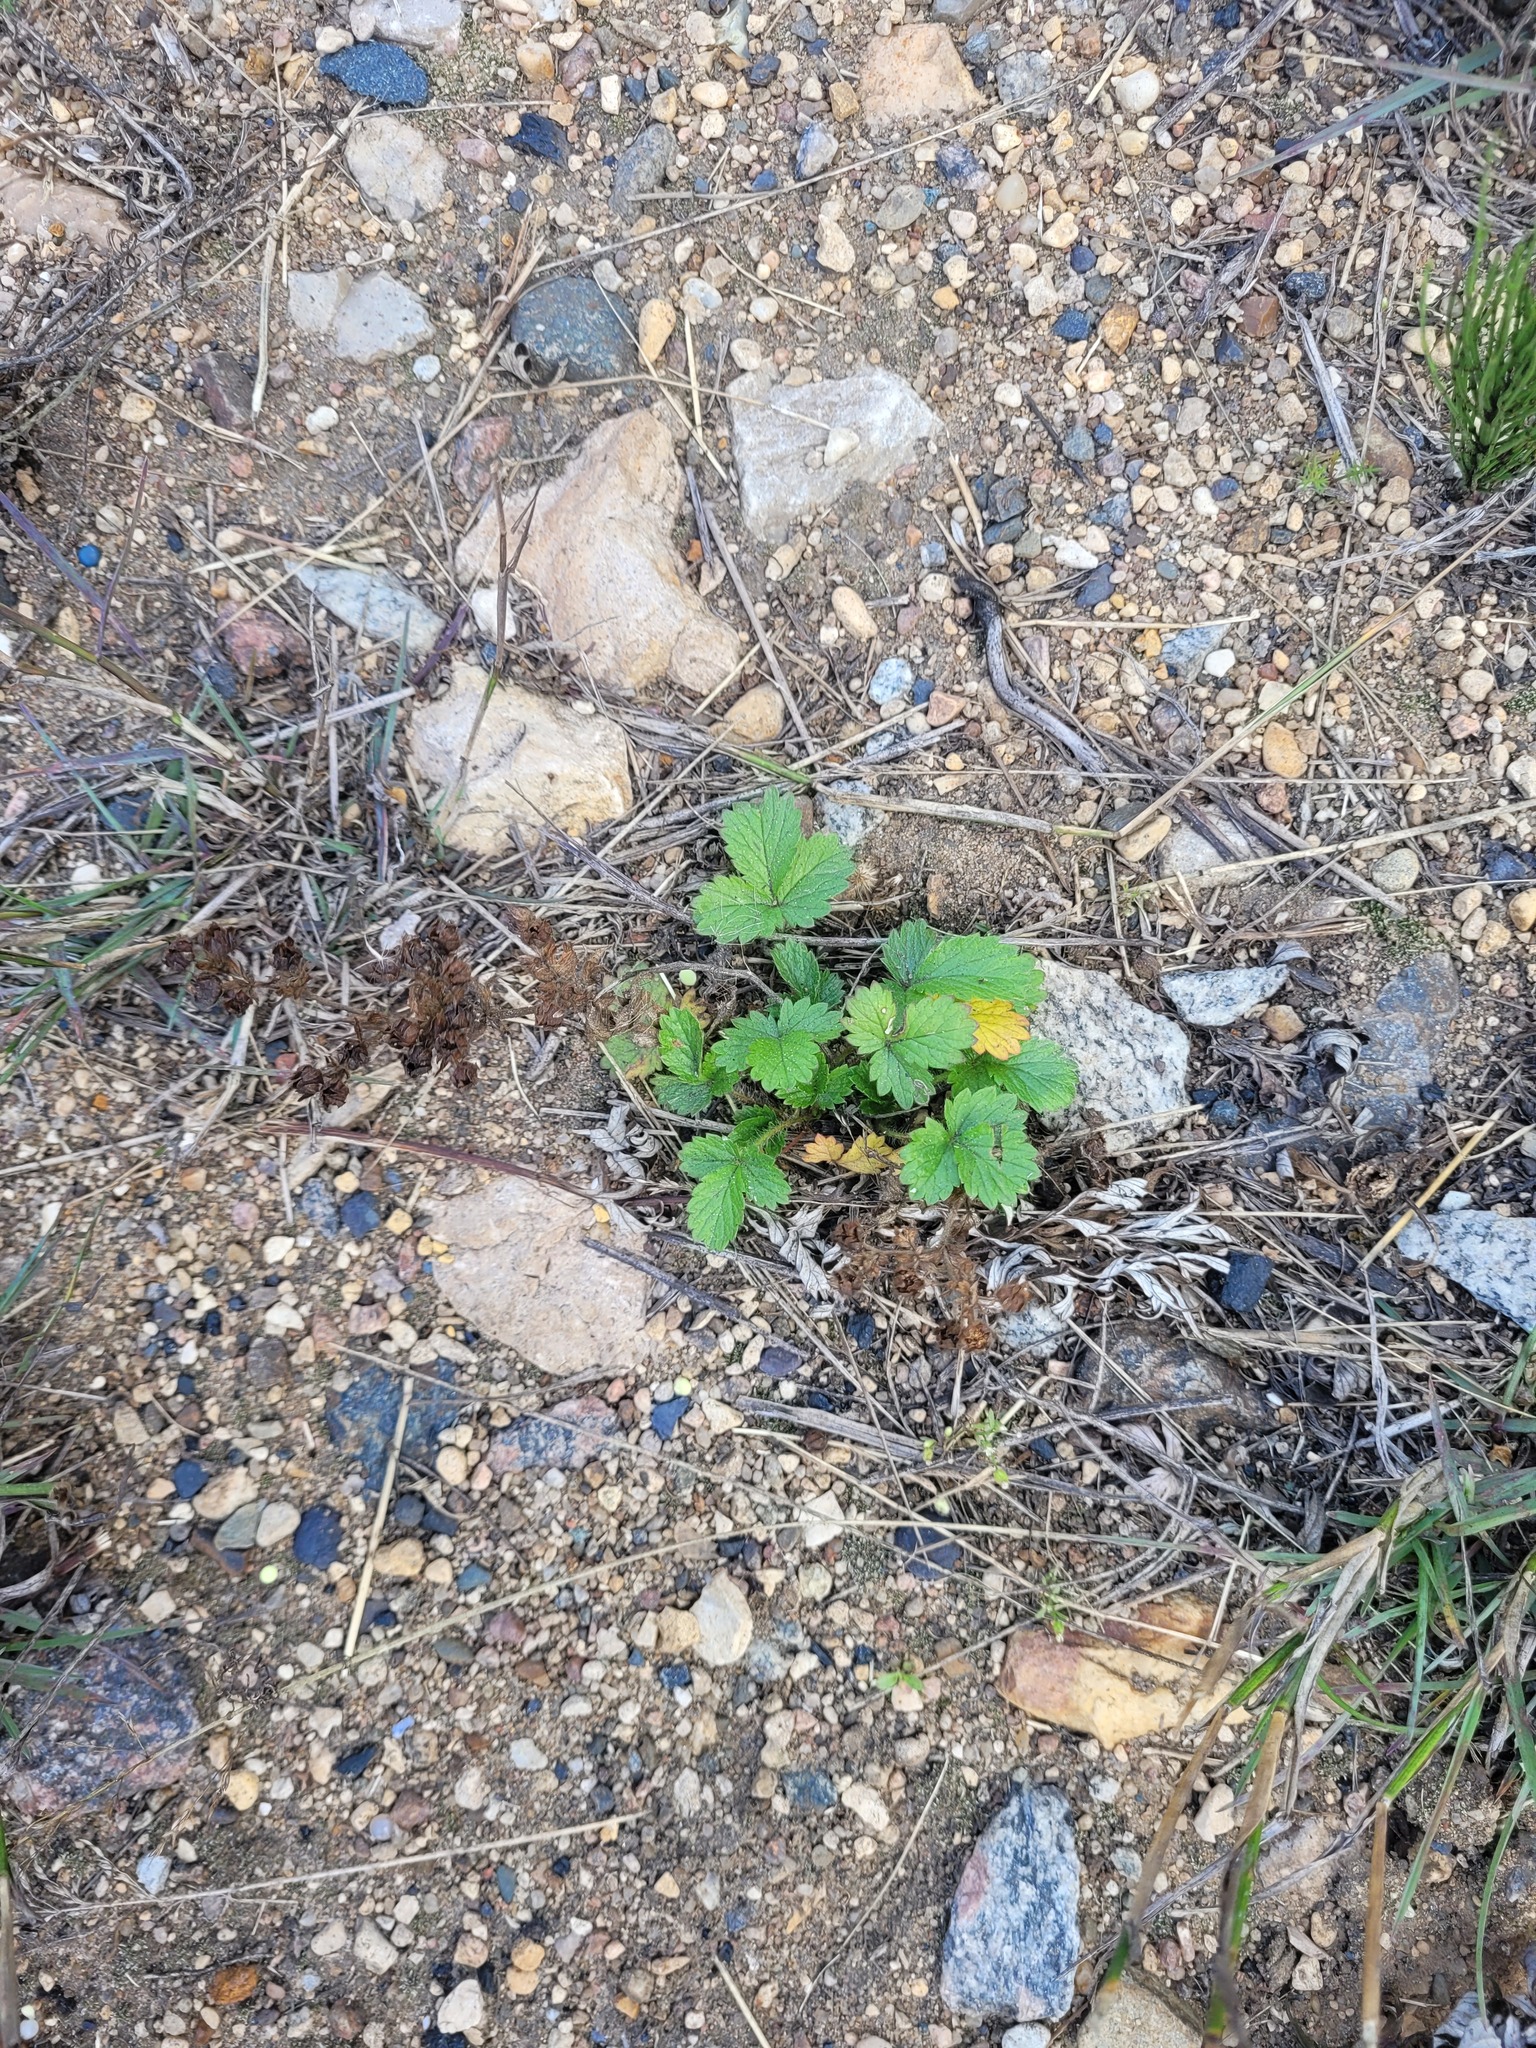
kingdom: Plantae
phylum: Tracheophyta
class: Magnoliopsida
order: Rosales
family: Rosaceae
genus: Potentilla
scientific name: Potentilla norvegica
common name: Ternate-leaved cinquefoil
